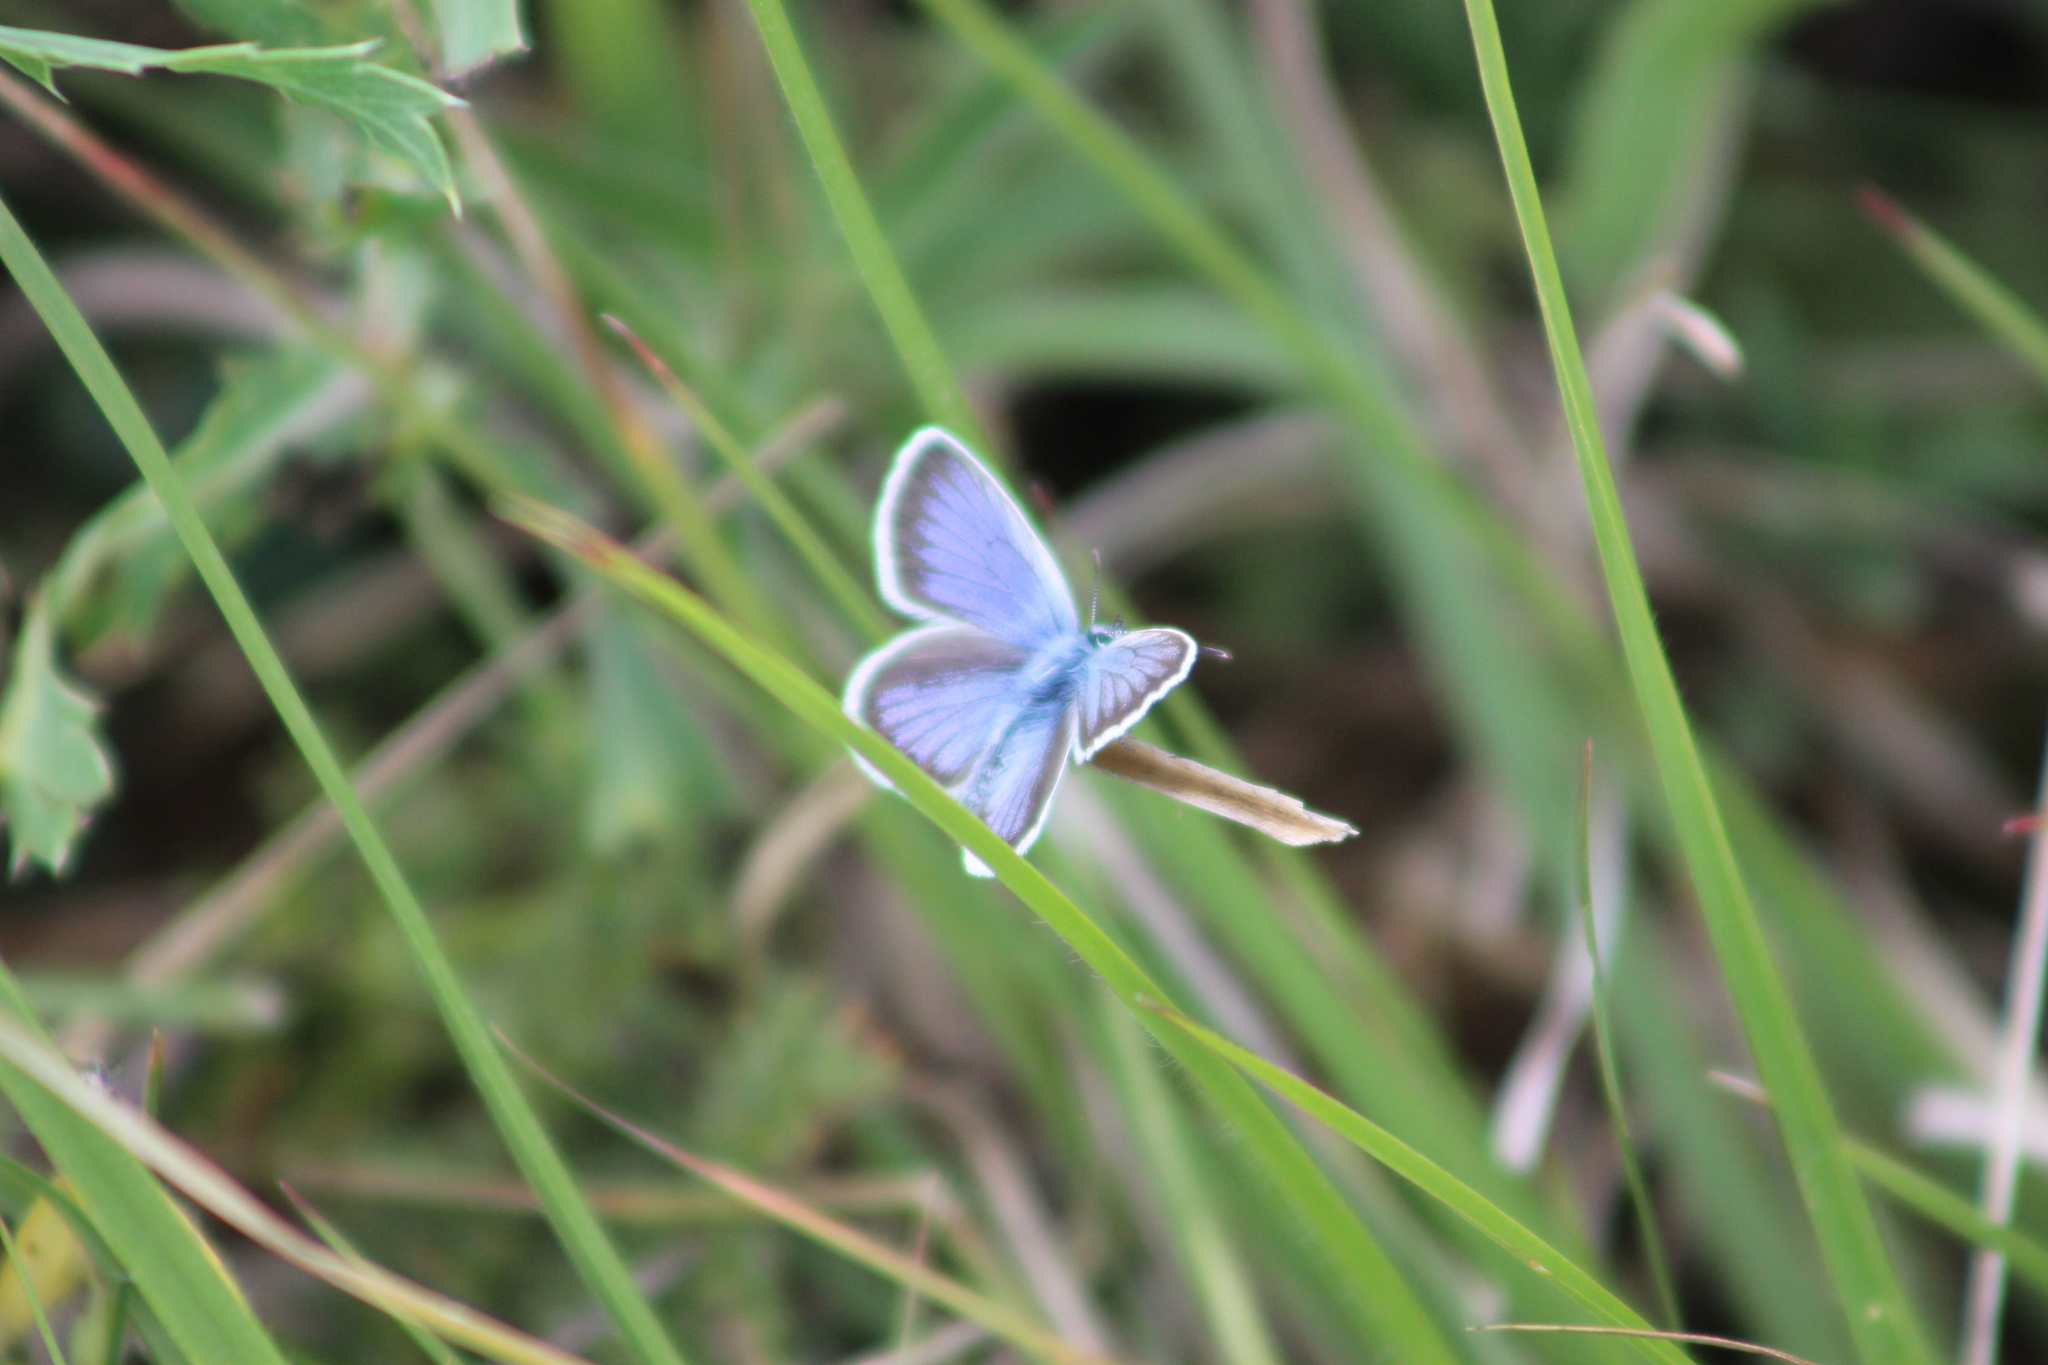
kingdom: Animalia
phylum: Arthropoda
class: Insecta
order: Lepidoptera
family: Lycaenidae
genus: Plebejus
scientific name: Plebejus argus
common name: Silver-studded blue
